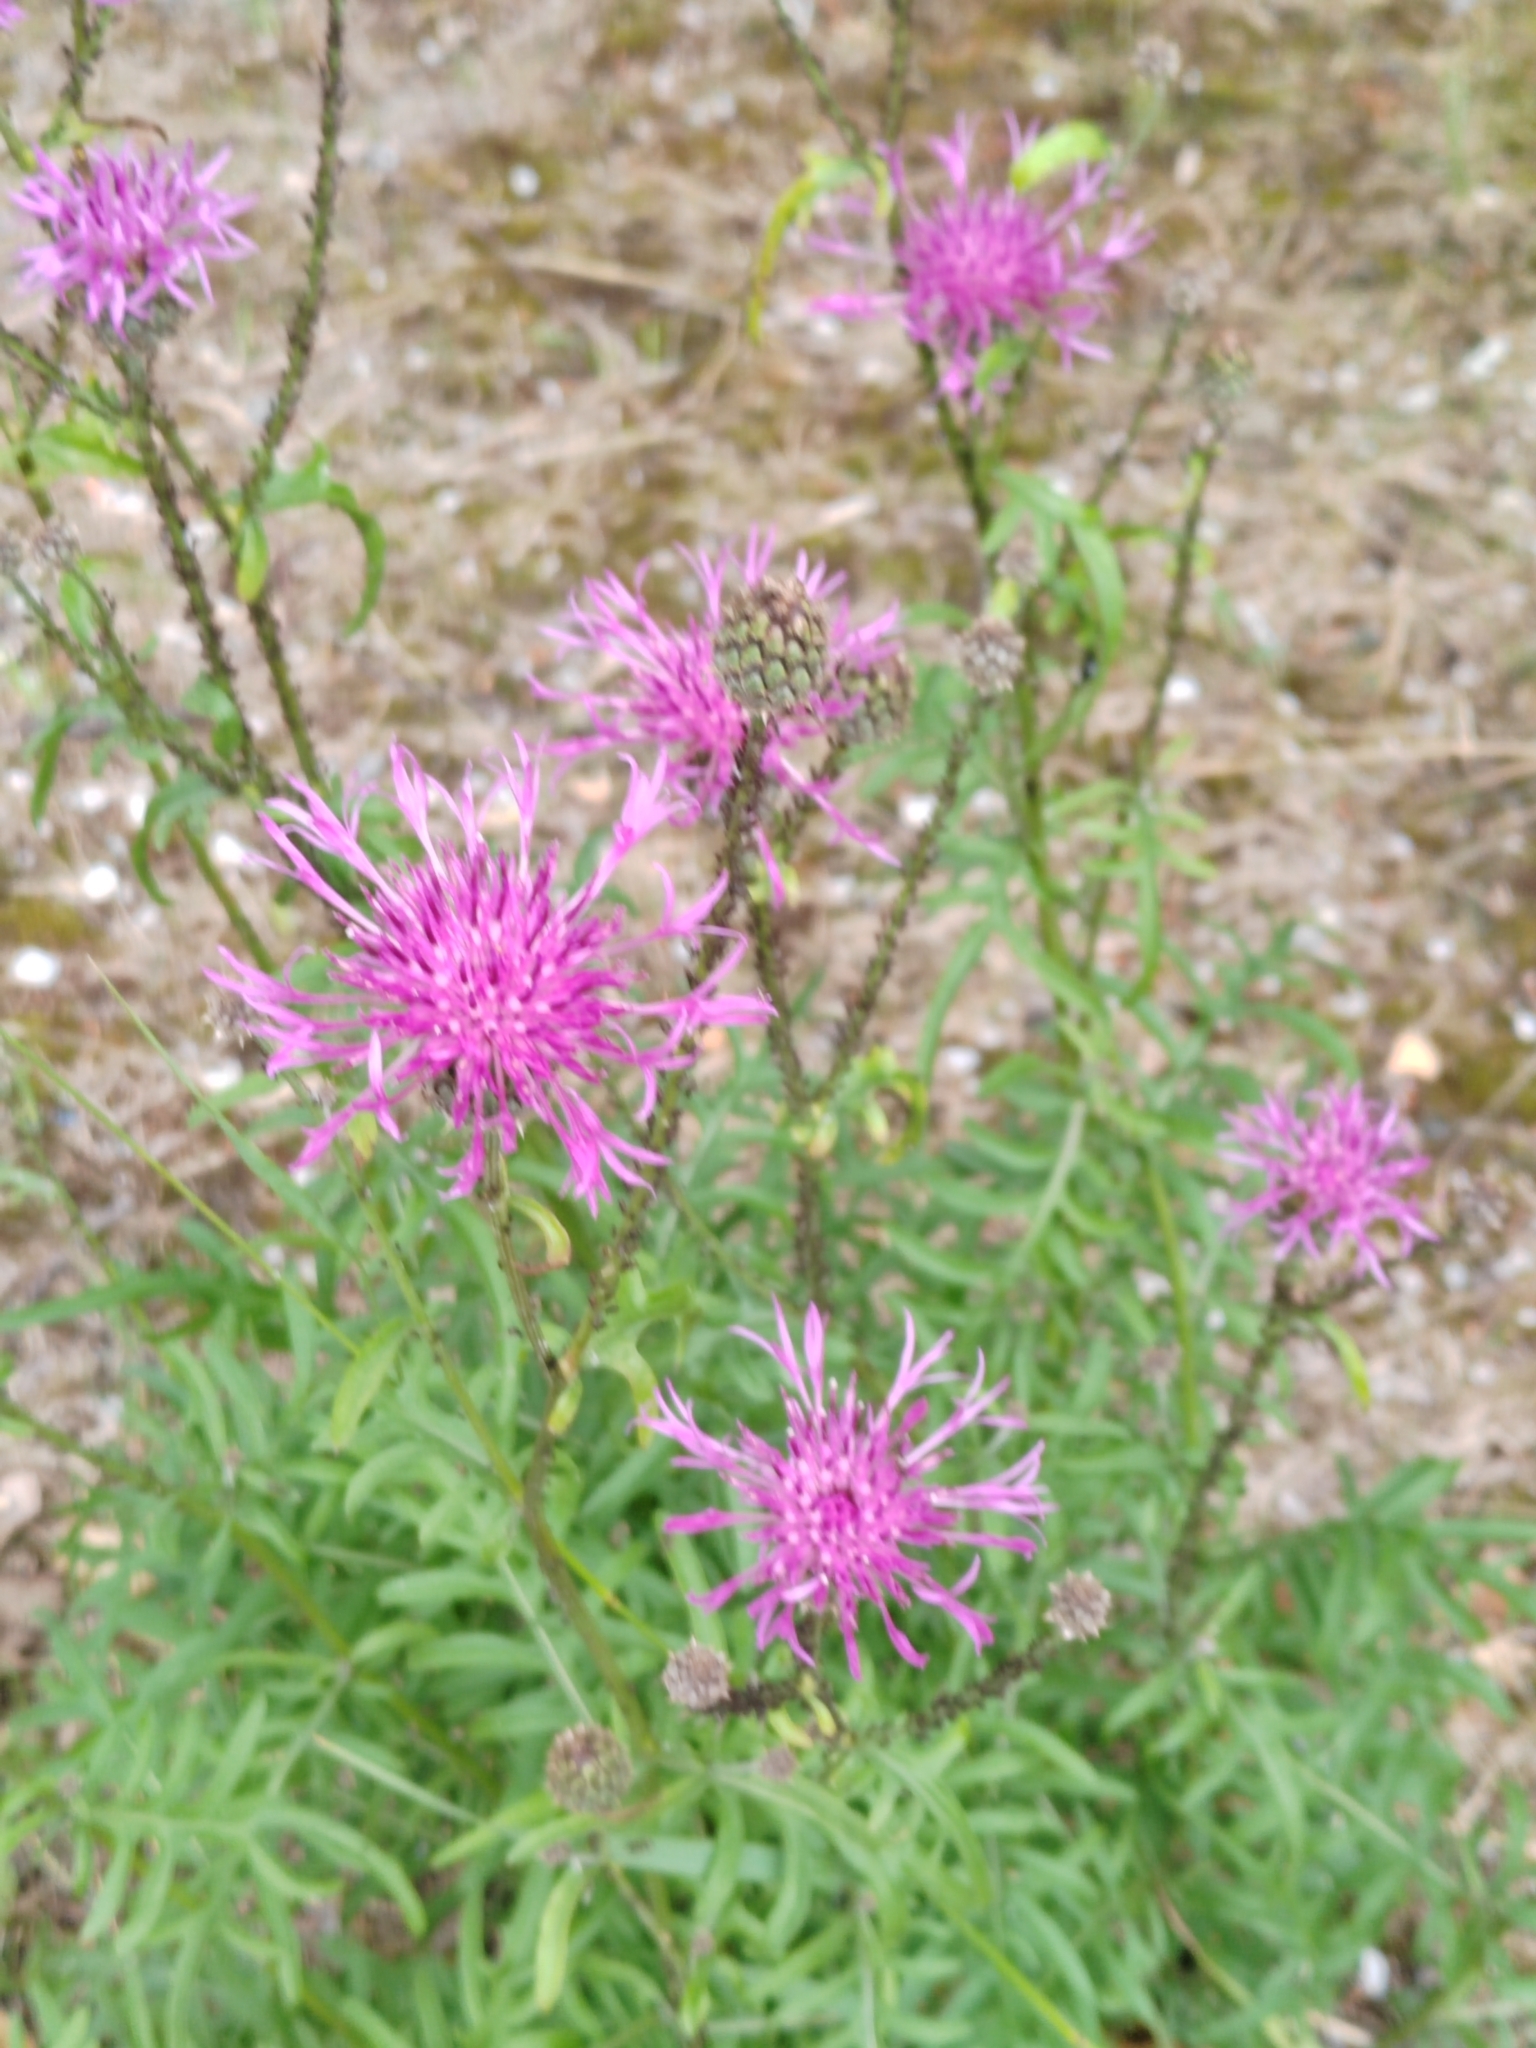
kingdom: Plantae
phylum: Tracheophyta
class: Magnoliopsida
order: Asterales
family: Asteraceae
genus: Centaurea
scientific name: Centaurea scabiosa
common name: Greater knapweed
